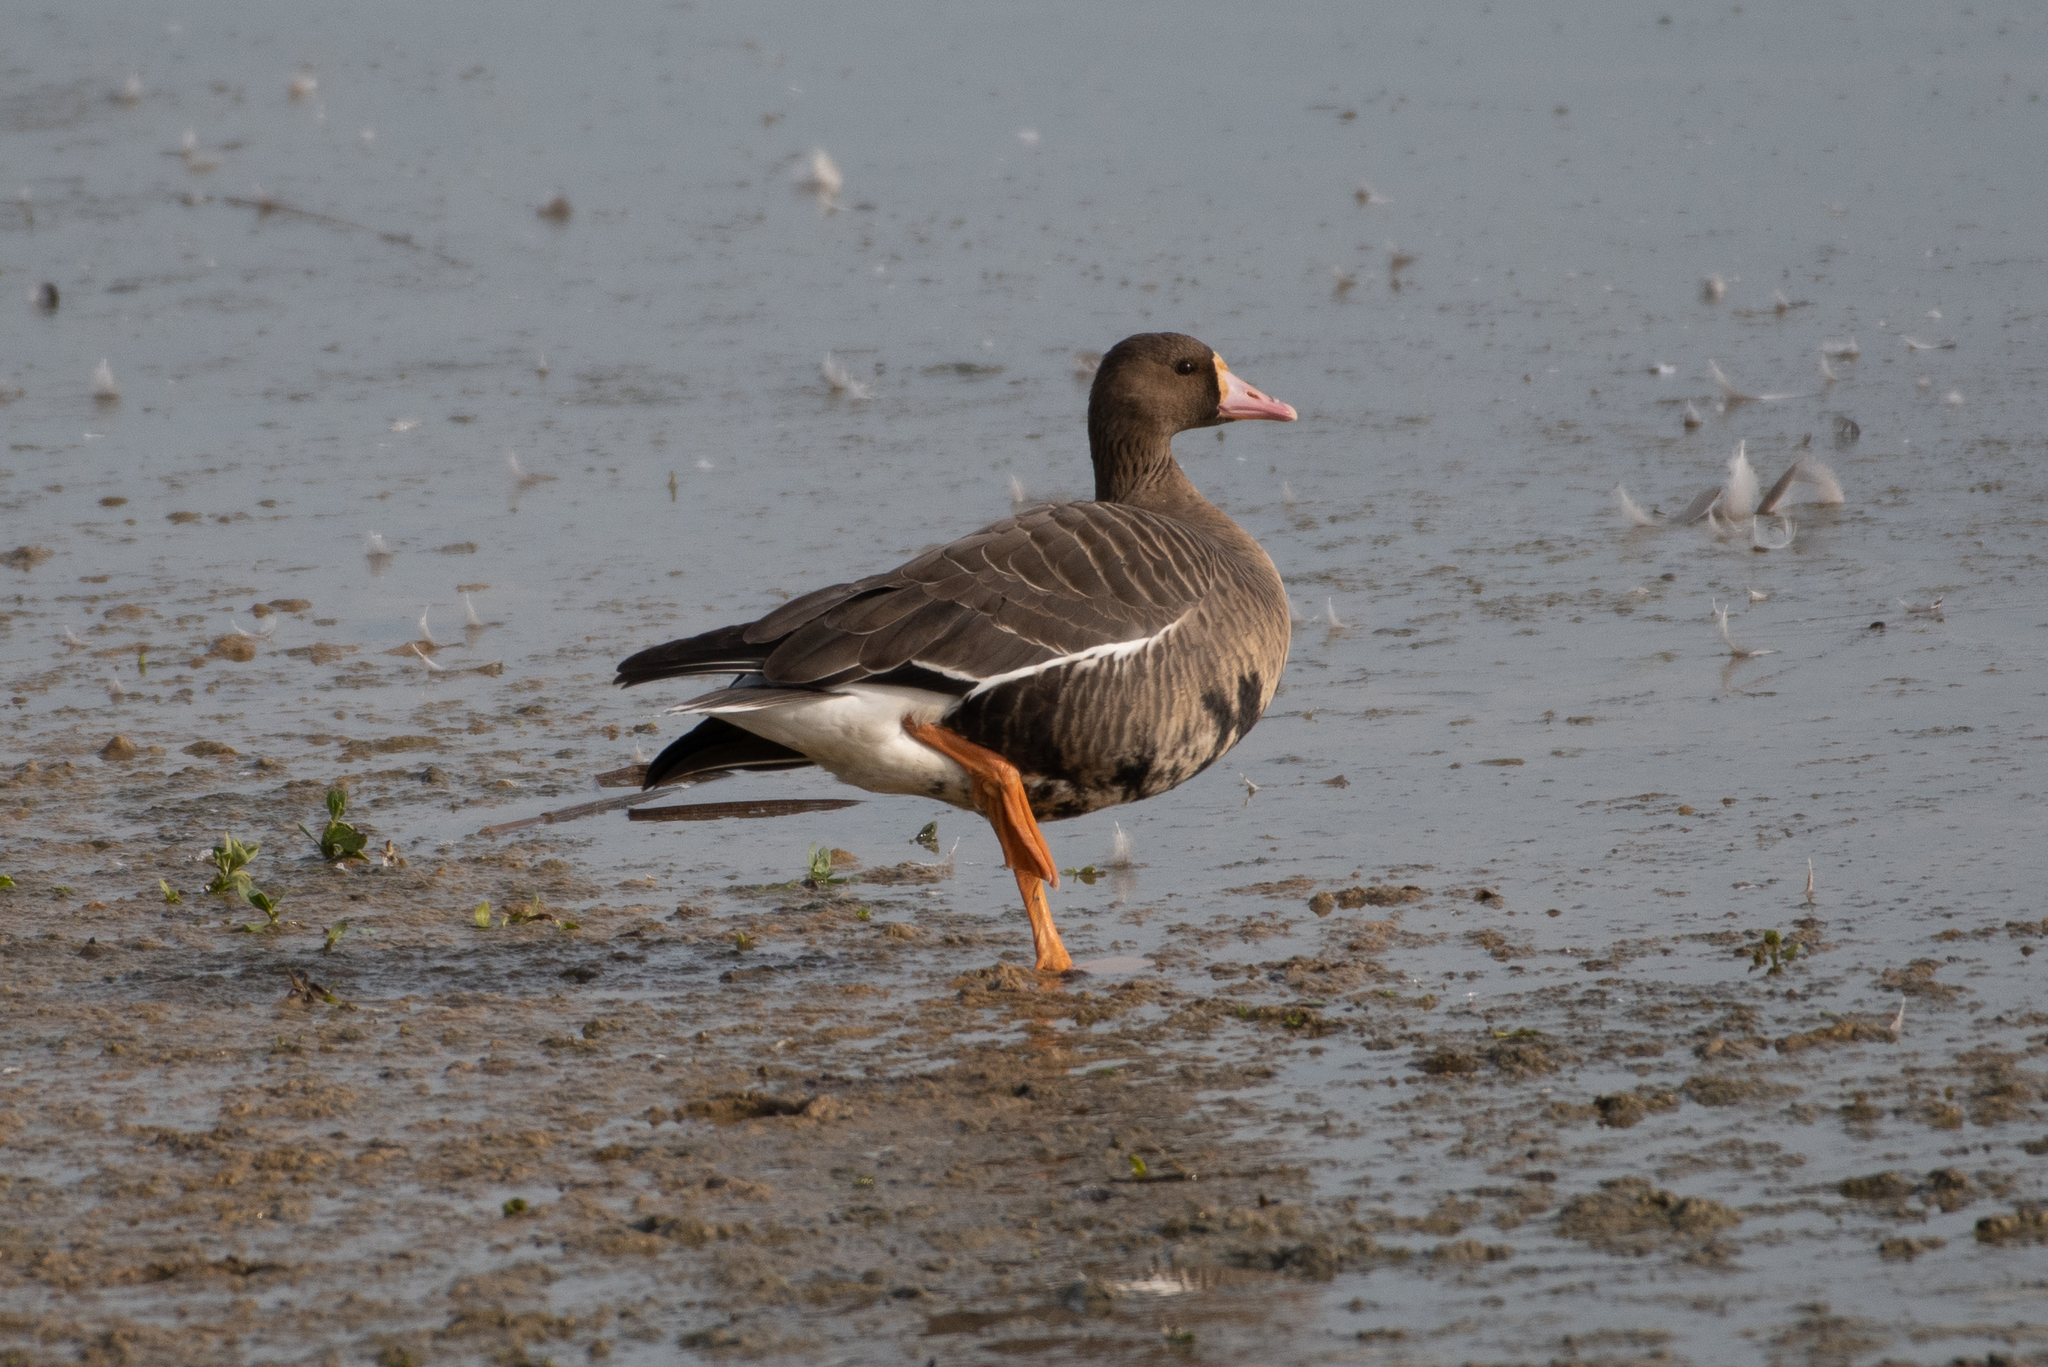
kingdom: Animalia
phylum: Chordata
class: Aves
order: Anseriformes
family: Anatidae
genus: Anser
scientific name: Anser albifrons
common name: Greater white-fronted goose
